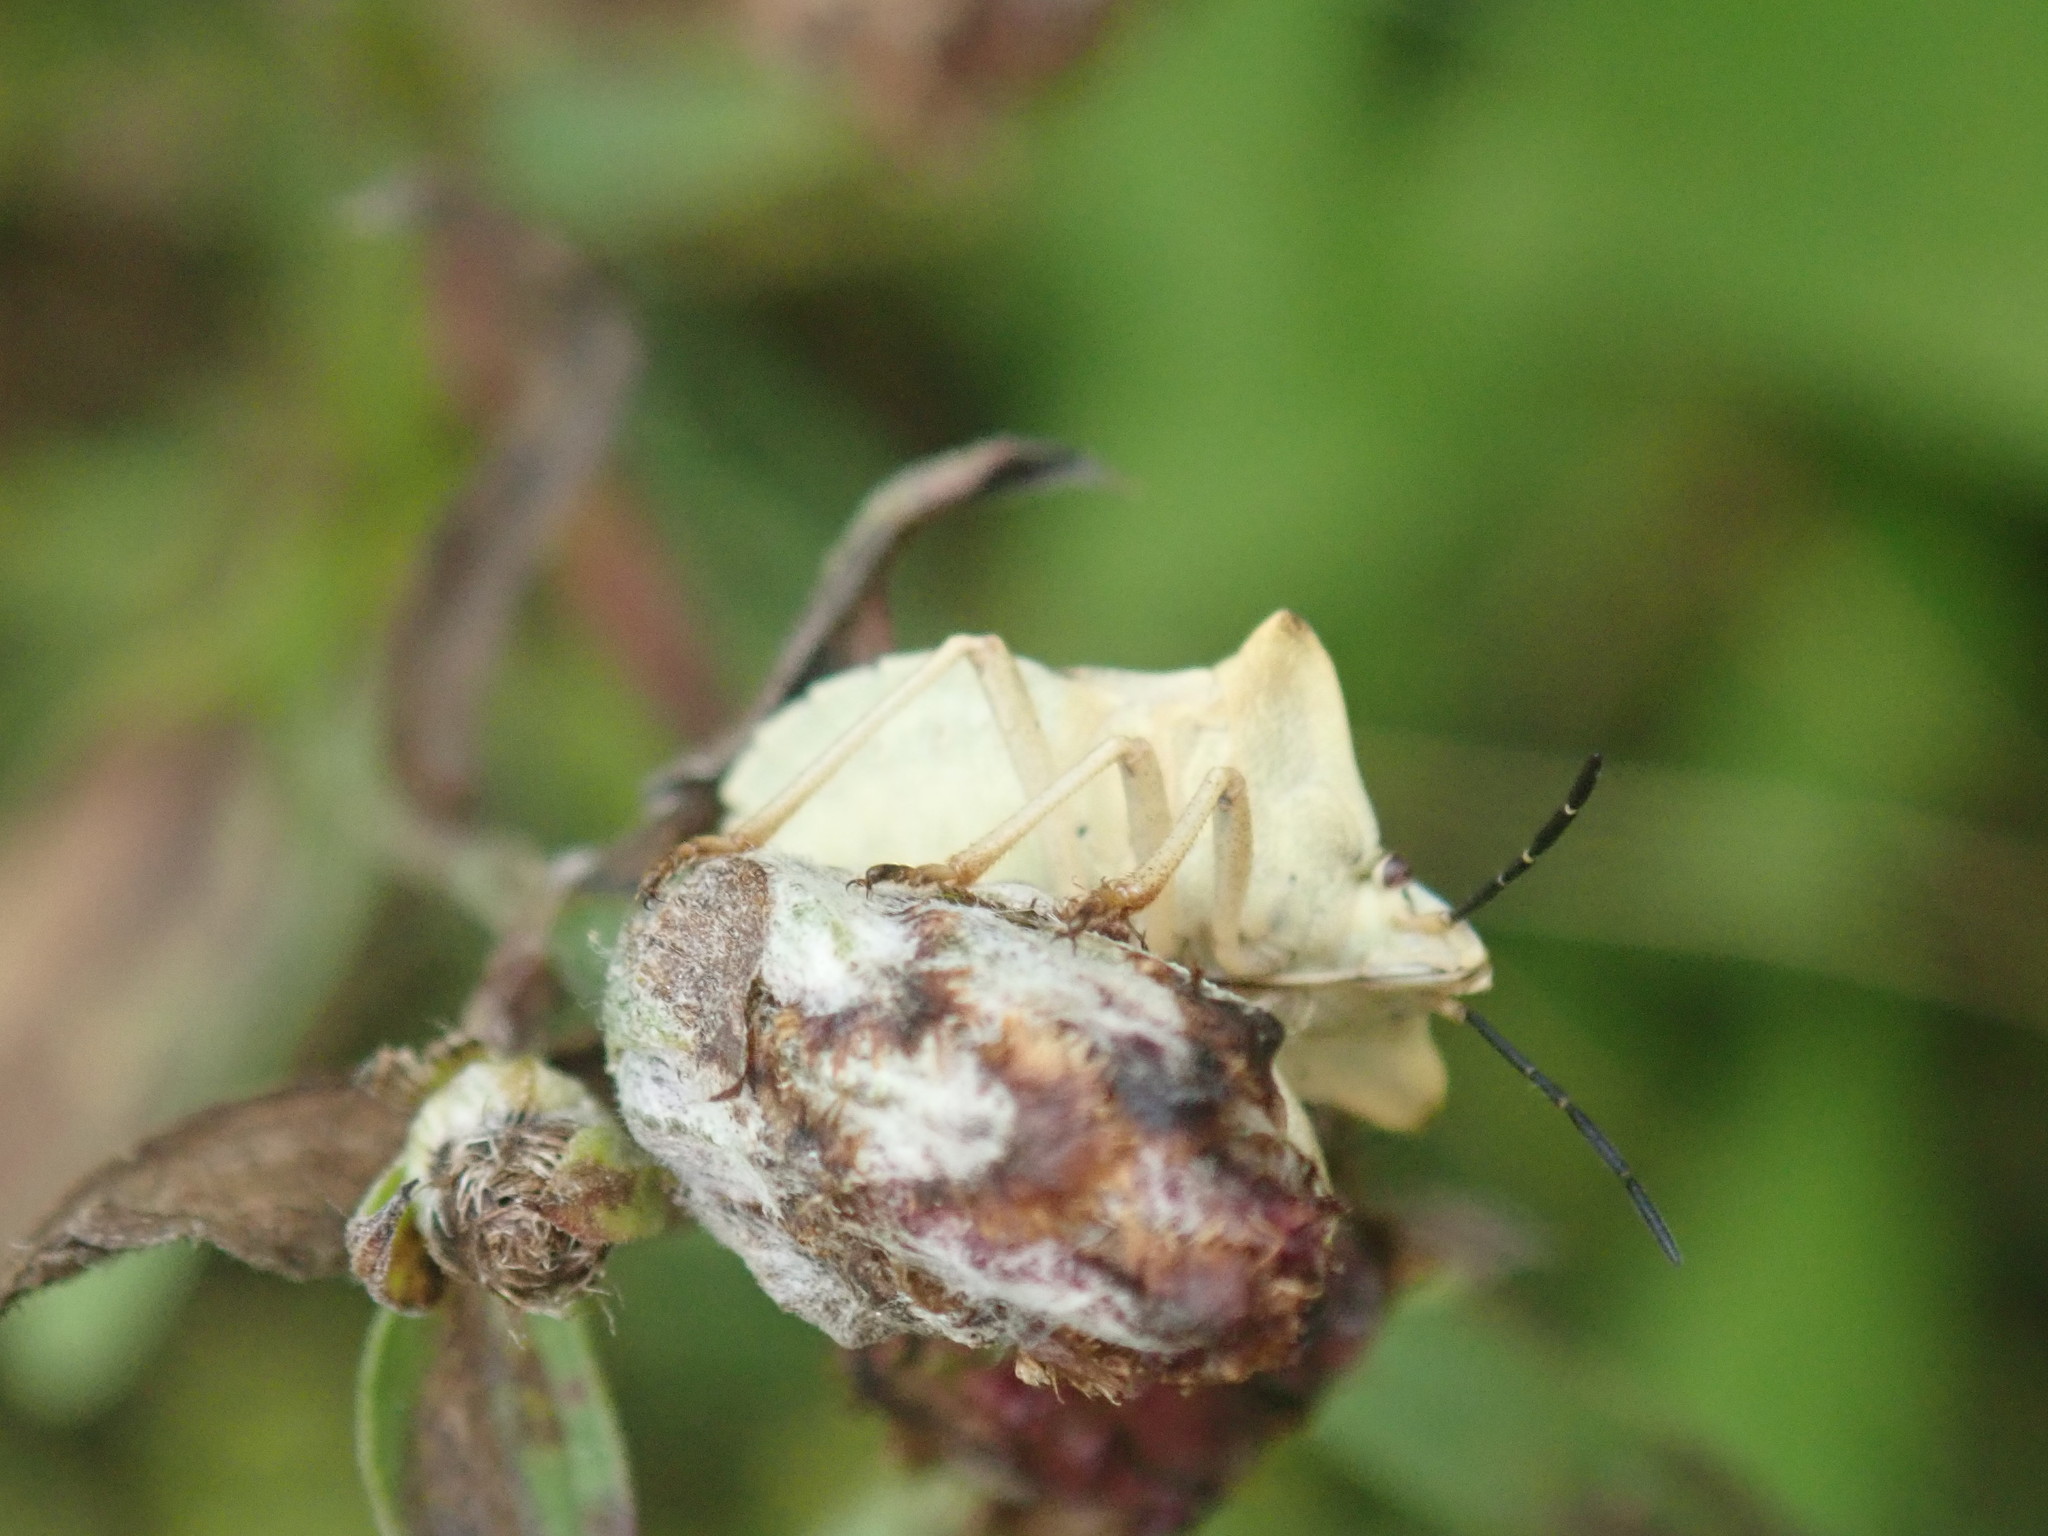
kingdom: Animalia
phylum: Arthropoda
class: Insecta
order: Hemiptera
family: Pentatomidae
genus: Carpocoris
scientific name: Carpocoris fuscispinus
